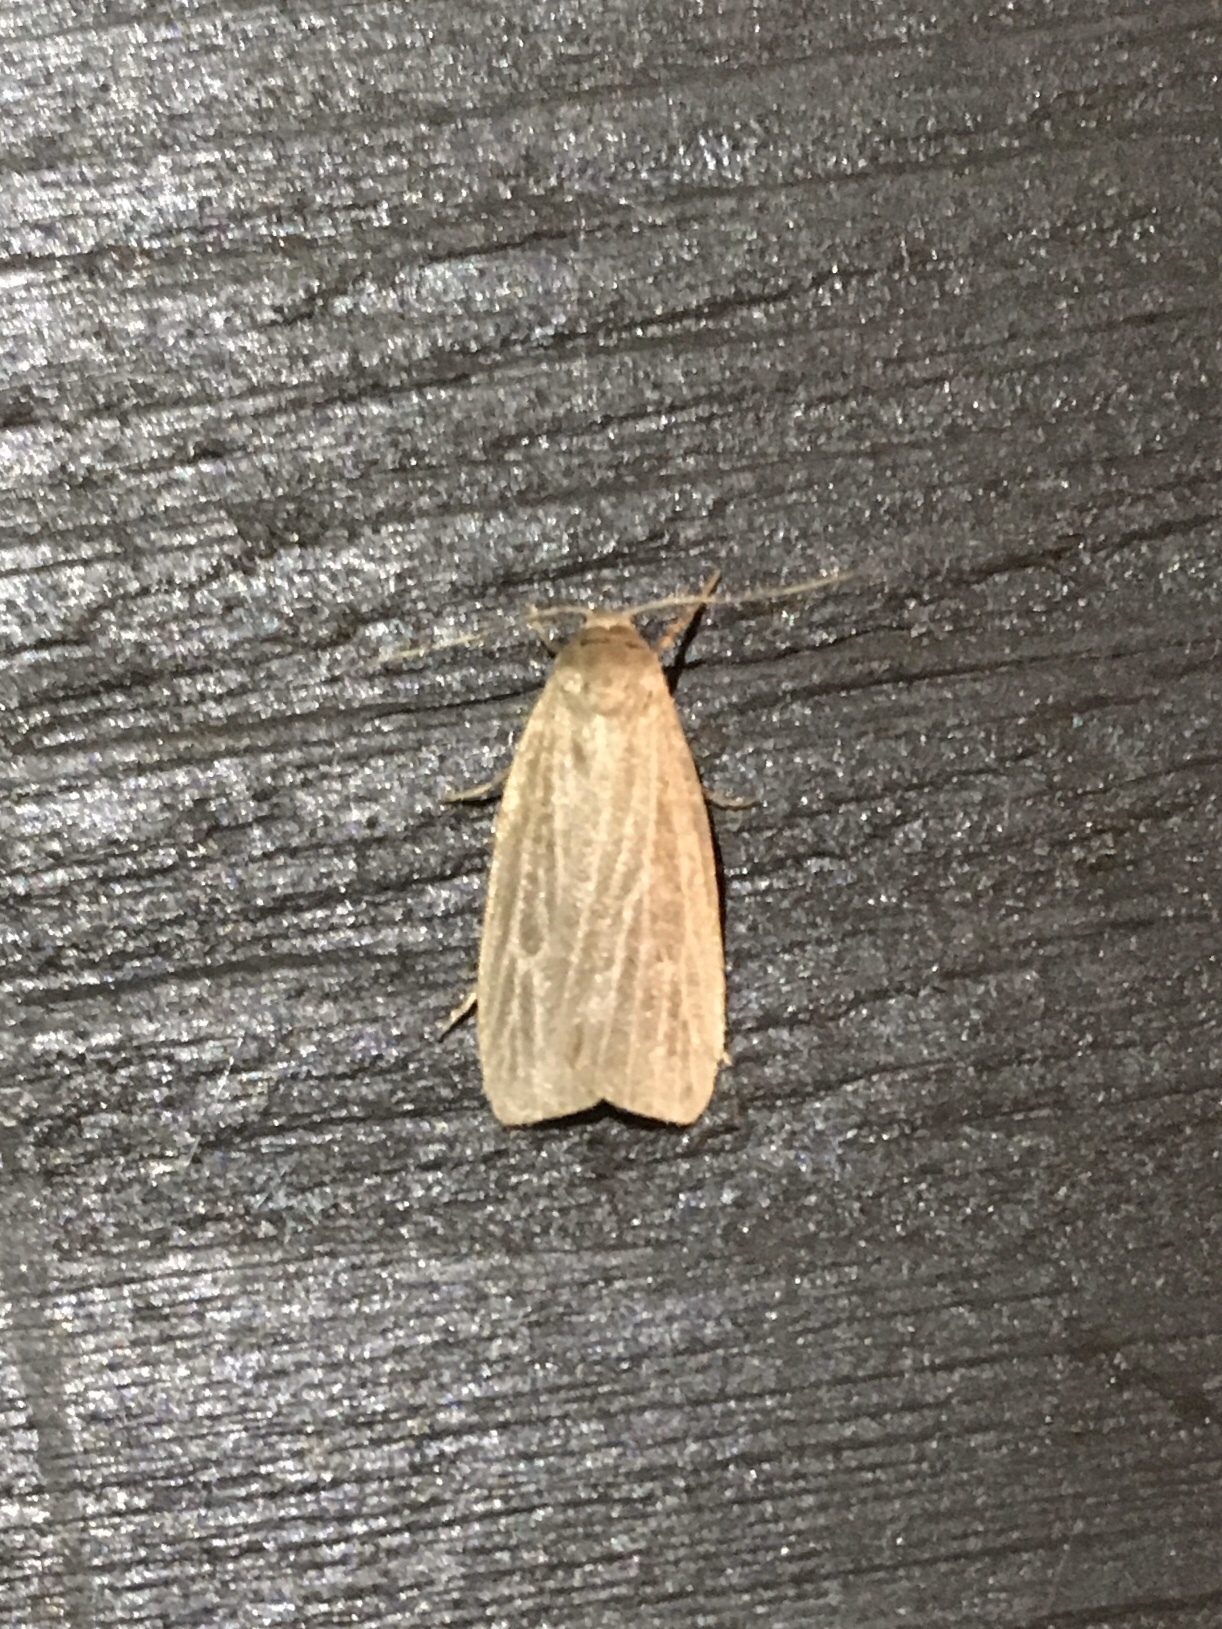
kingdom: Animalia
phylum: Arthropoda
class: Insecta
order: Lepidoptera
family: Erebidae
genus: Crambidia
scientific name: Crambidia pallida
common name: Pale lichen moth
